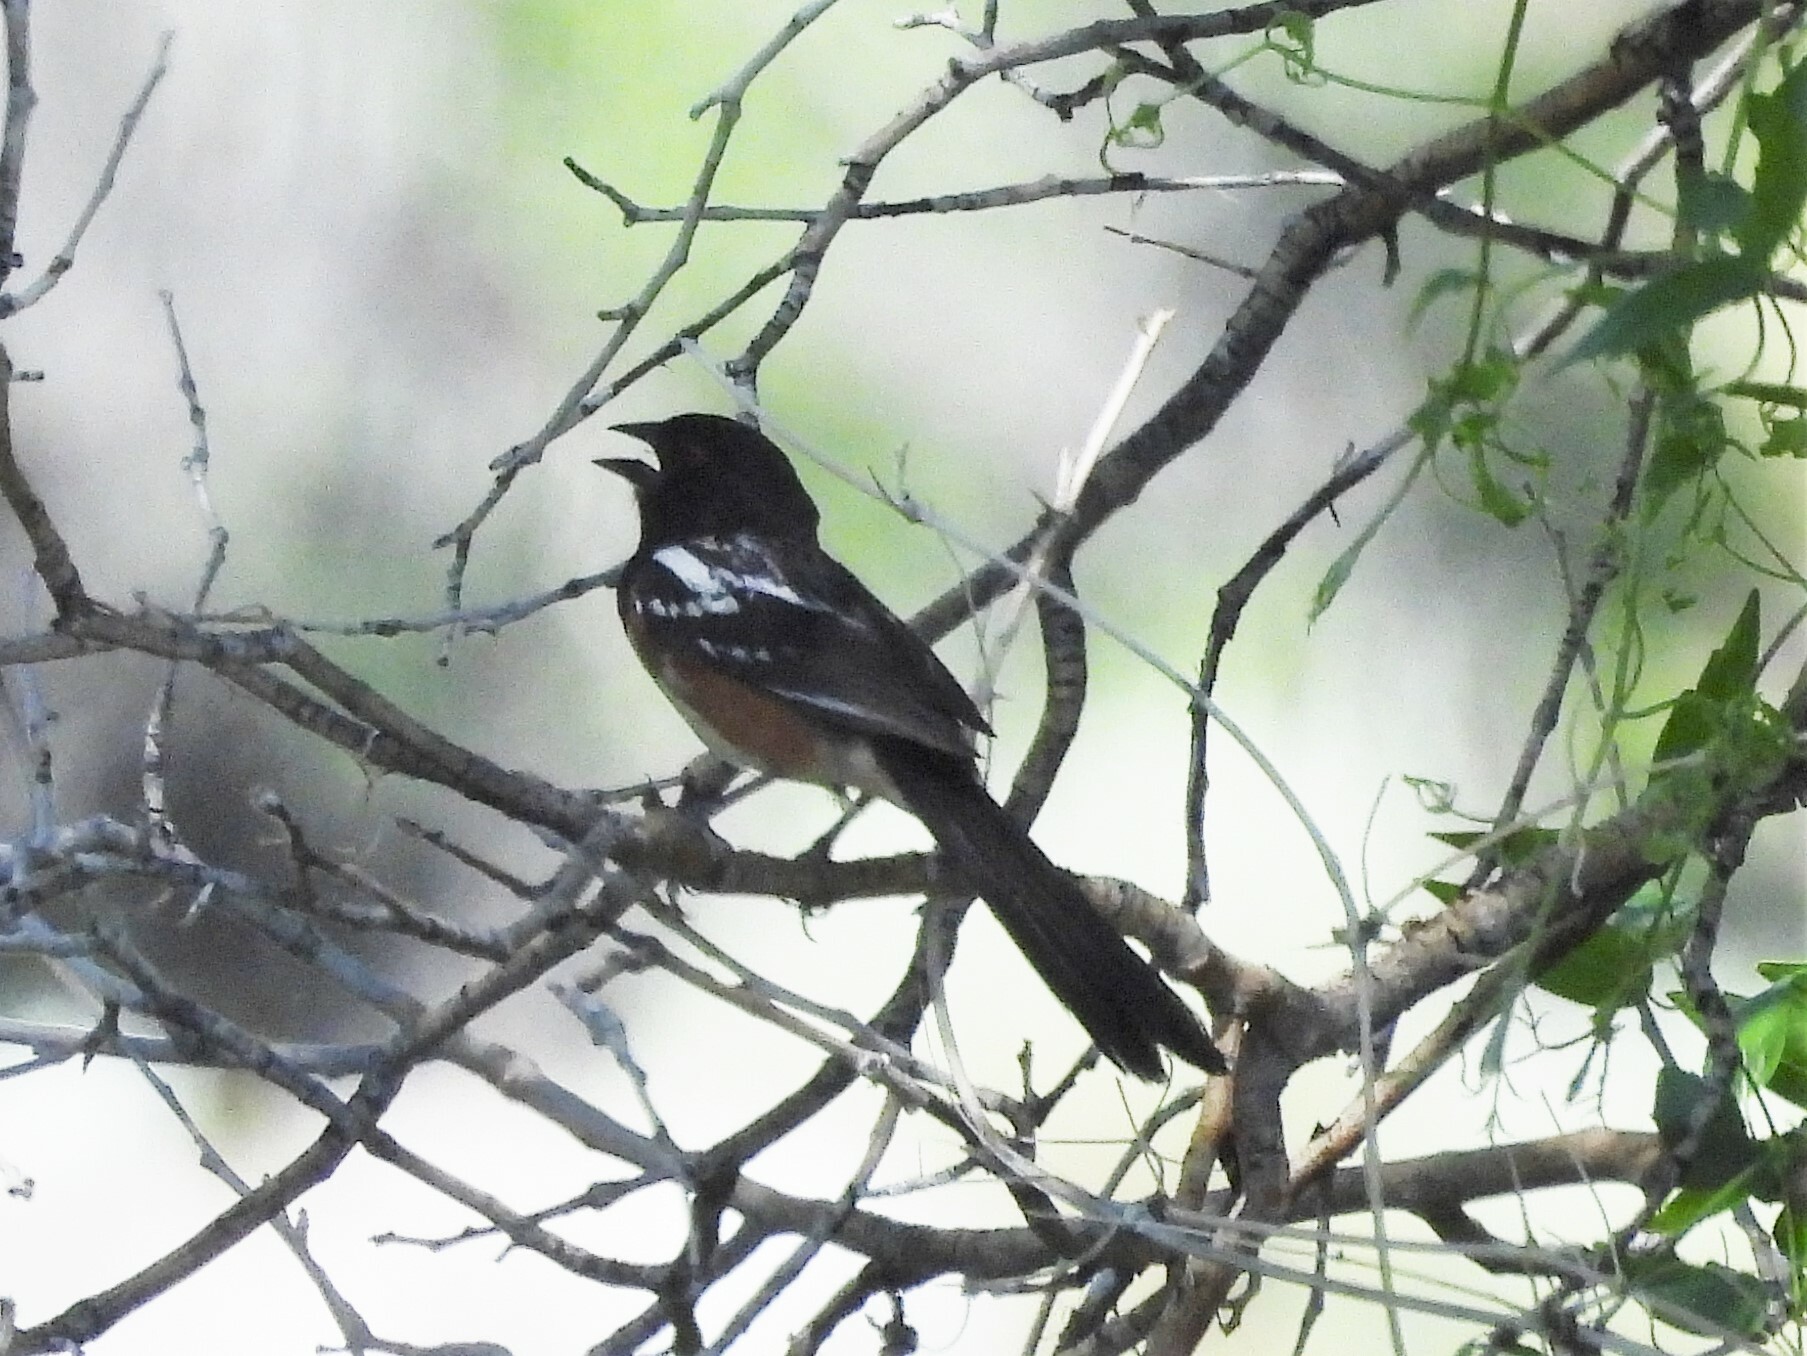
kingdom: Animalia
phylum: Chordata
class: Aves
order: Passeriformes
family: Passerellidae
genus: Pipilo
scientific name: Pipilo maculatus
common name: Spotted towhee
